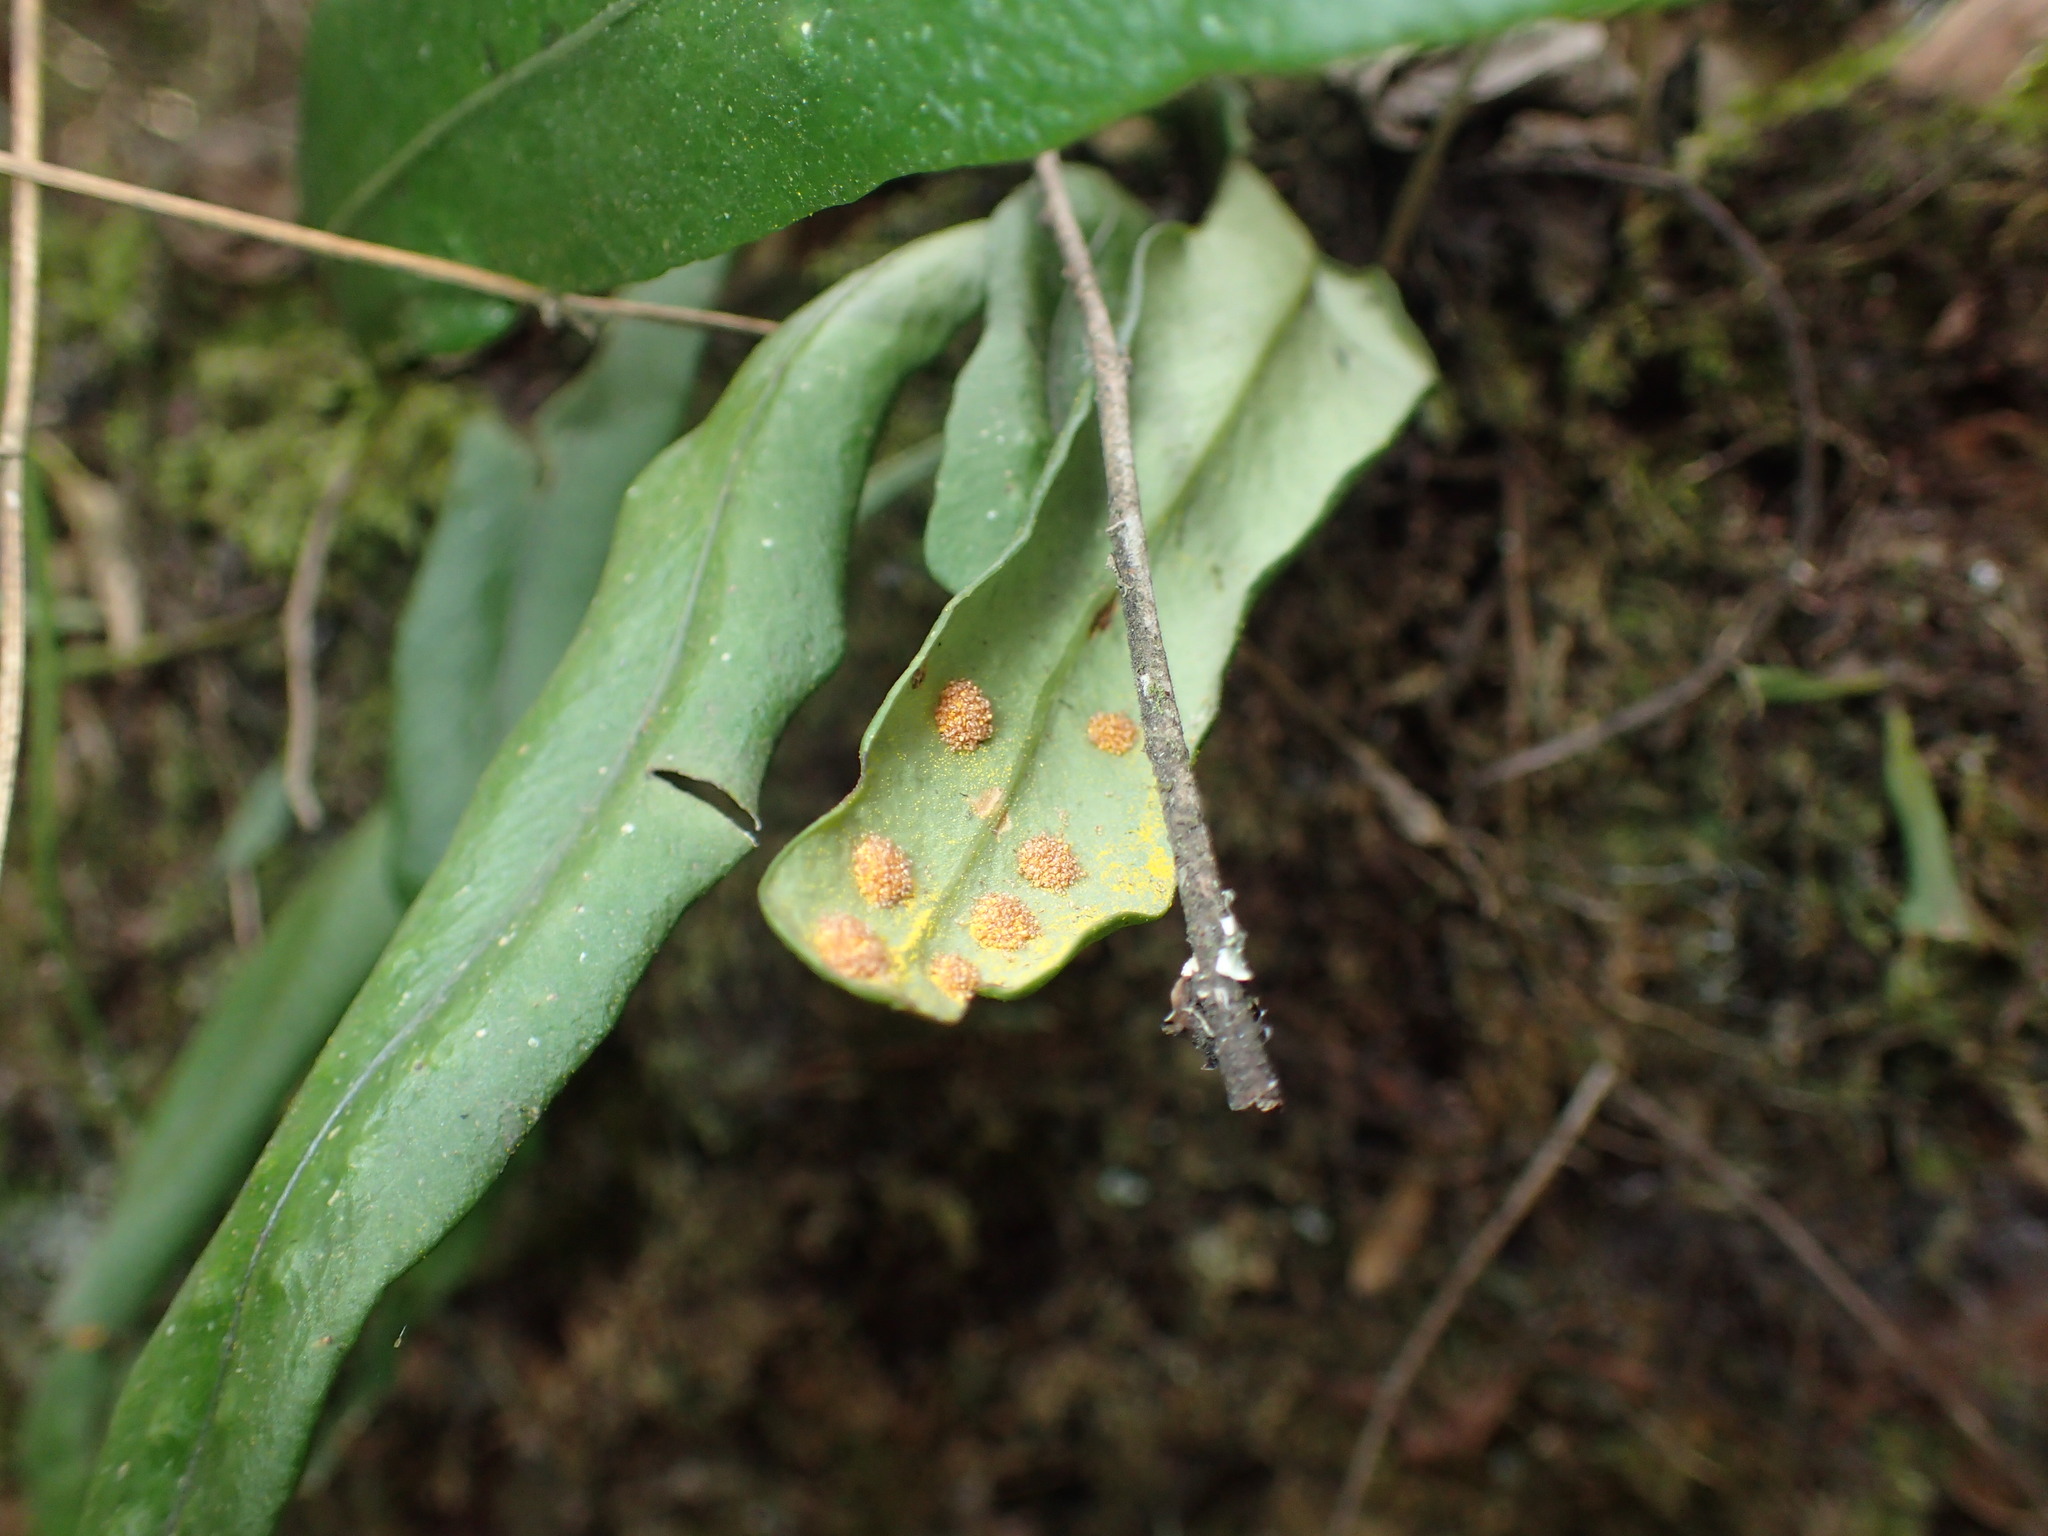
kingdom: Plantae
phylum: Tracheophyta
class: Polypodiopsida
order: Polypodiales
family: Polypodiaceae
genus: Lepisorus
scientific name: Lepisorus schraderi
